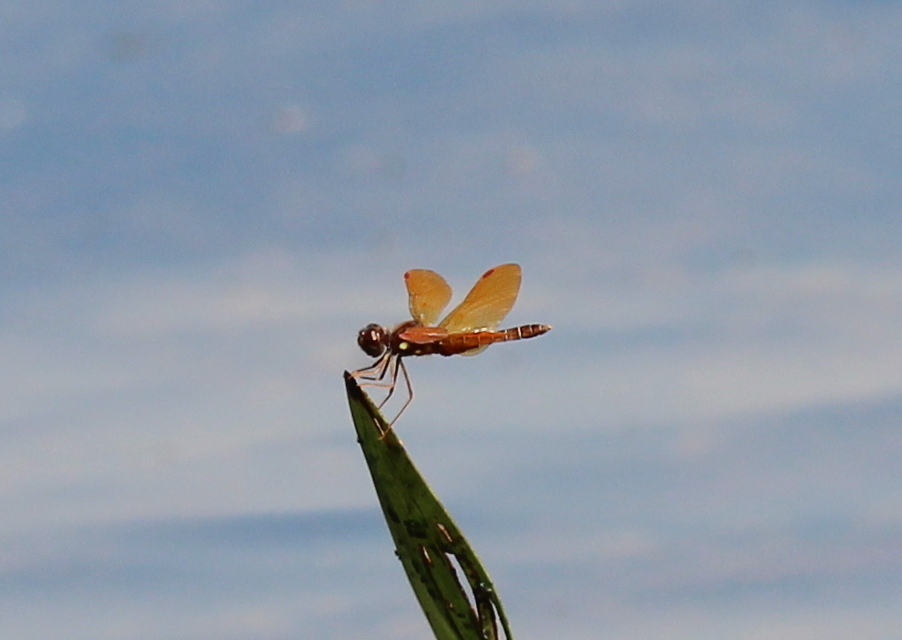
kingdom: Animalia
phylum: Arthropoda
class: Insecta
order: Odonata
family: Libellulidae
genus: Perithemis
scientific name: Perithemis tenera
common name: Eastern amberwing
